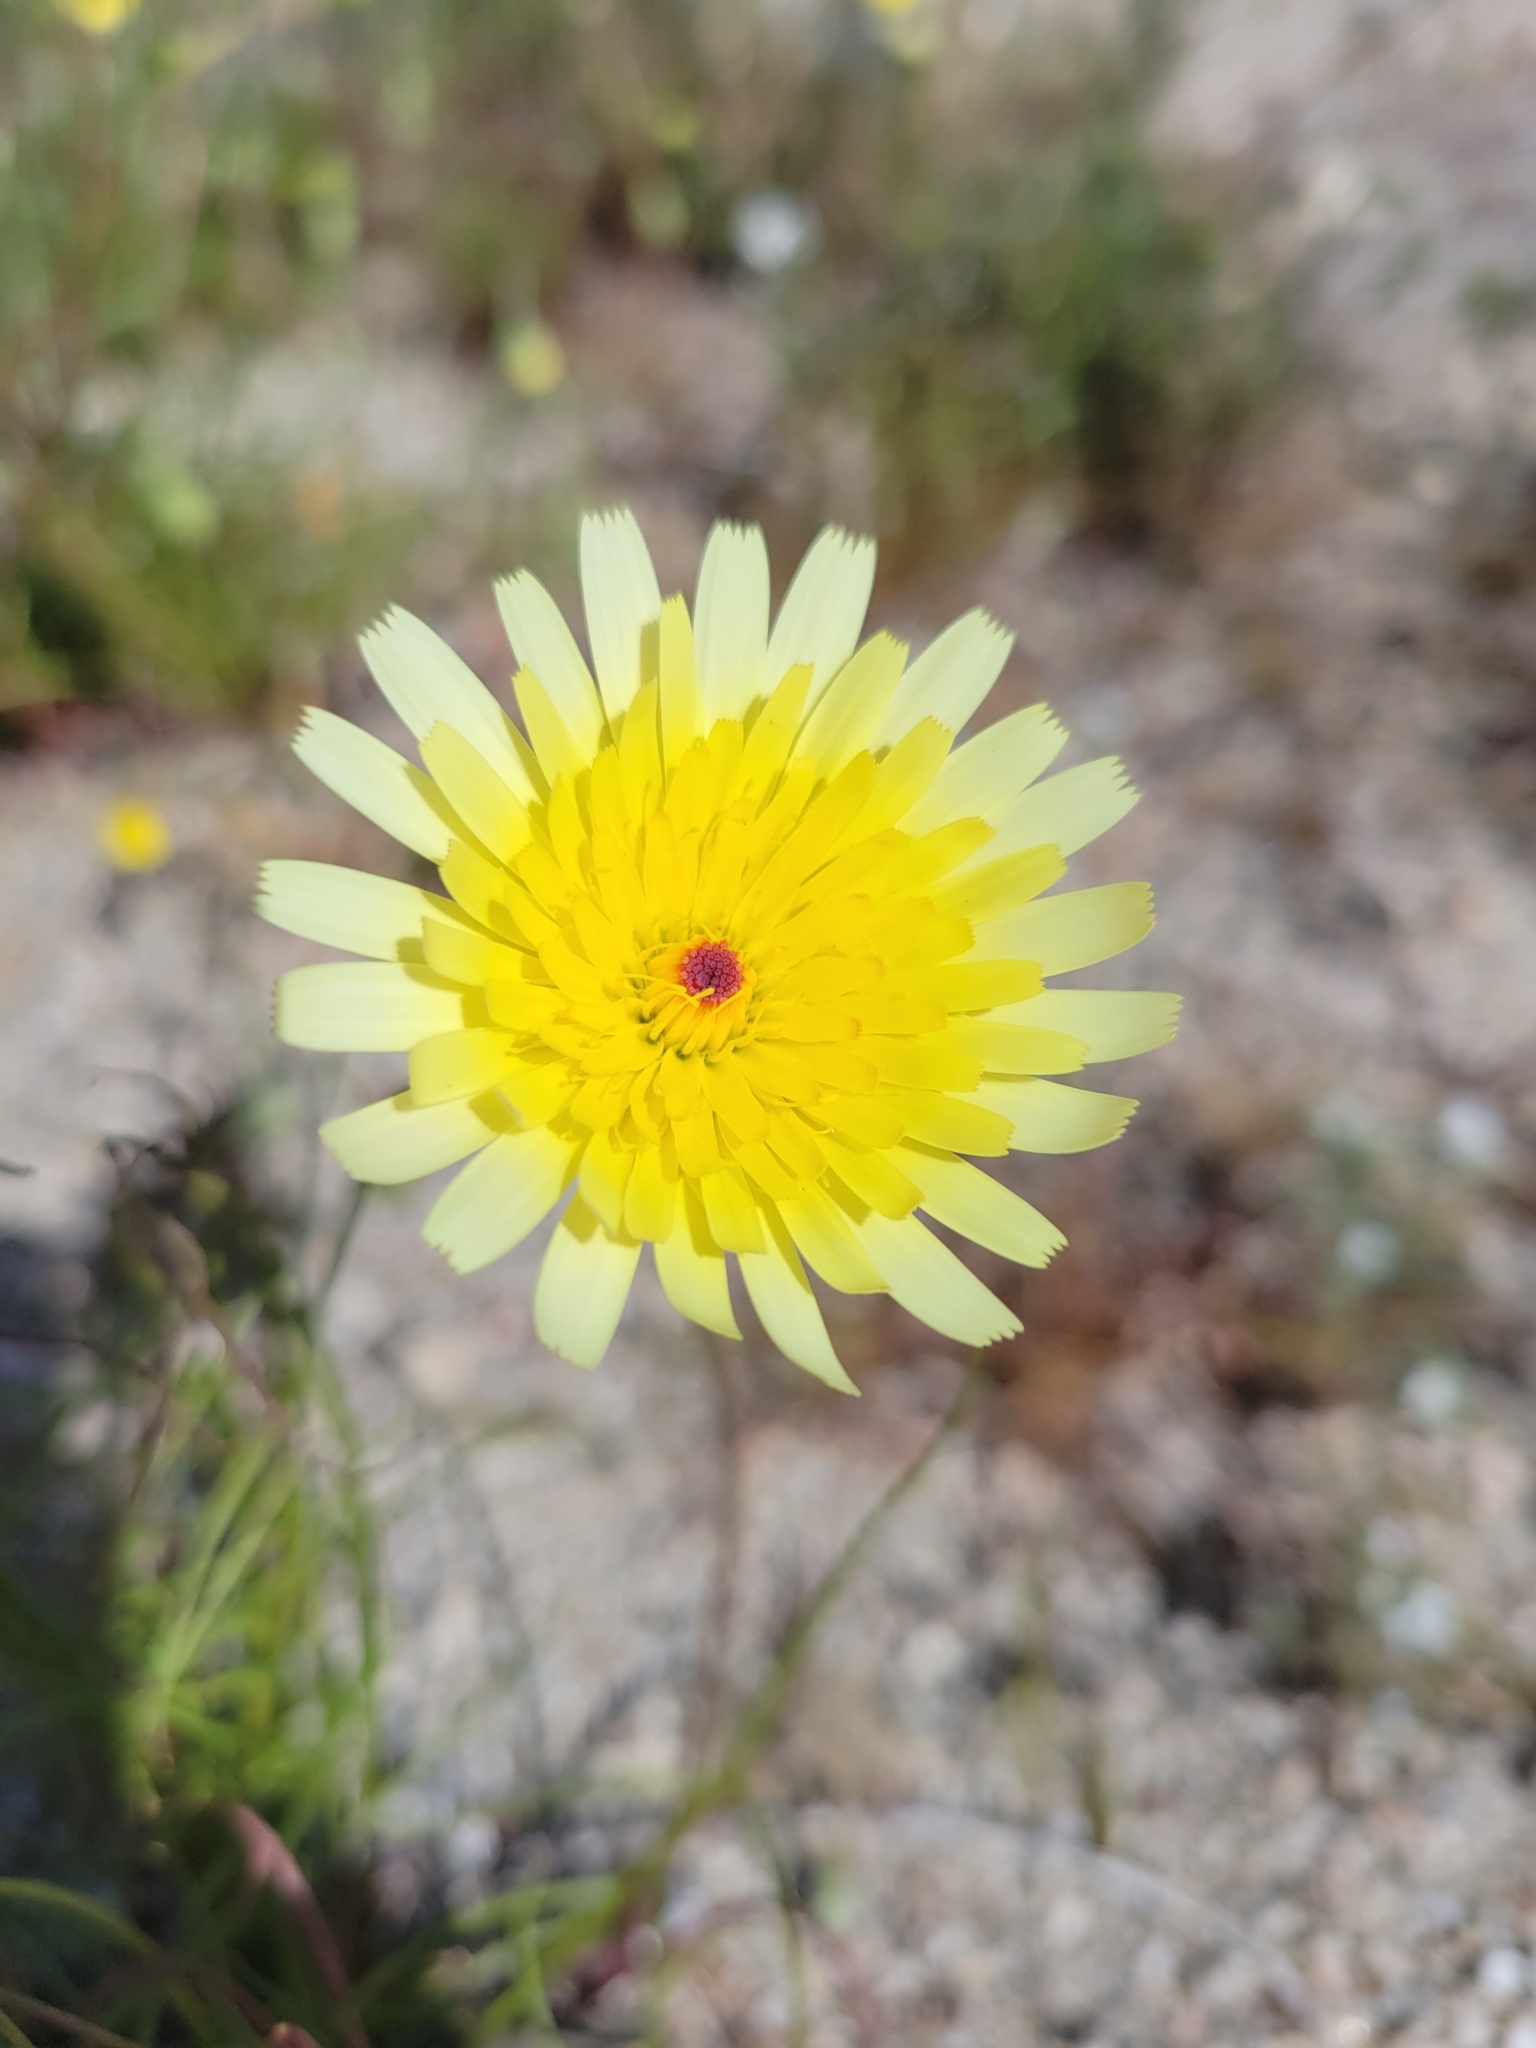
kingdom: Plantae
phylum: Tracheophyta
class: Magnoliopsida
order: Asterales
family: Asteraceae
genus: Malacothrix
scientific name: Malacothrix glabrata
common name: Smooth desert-dandelion
